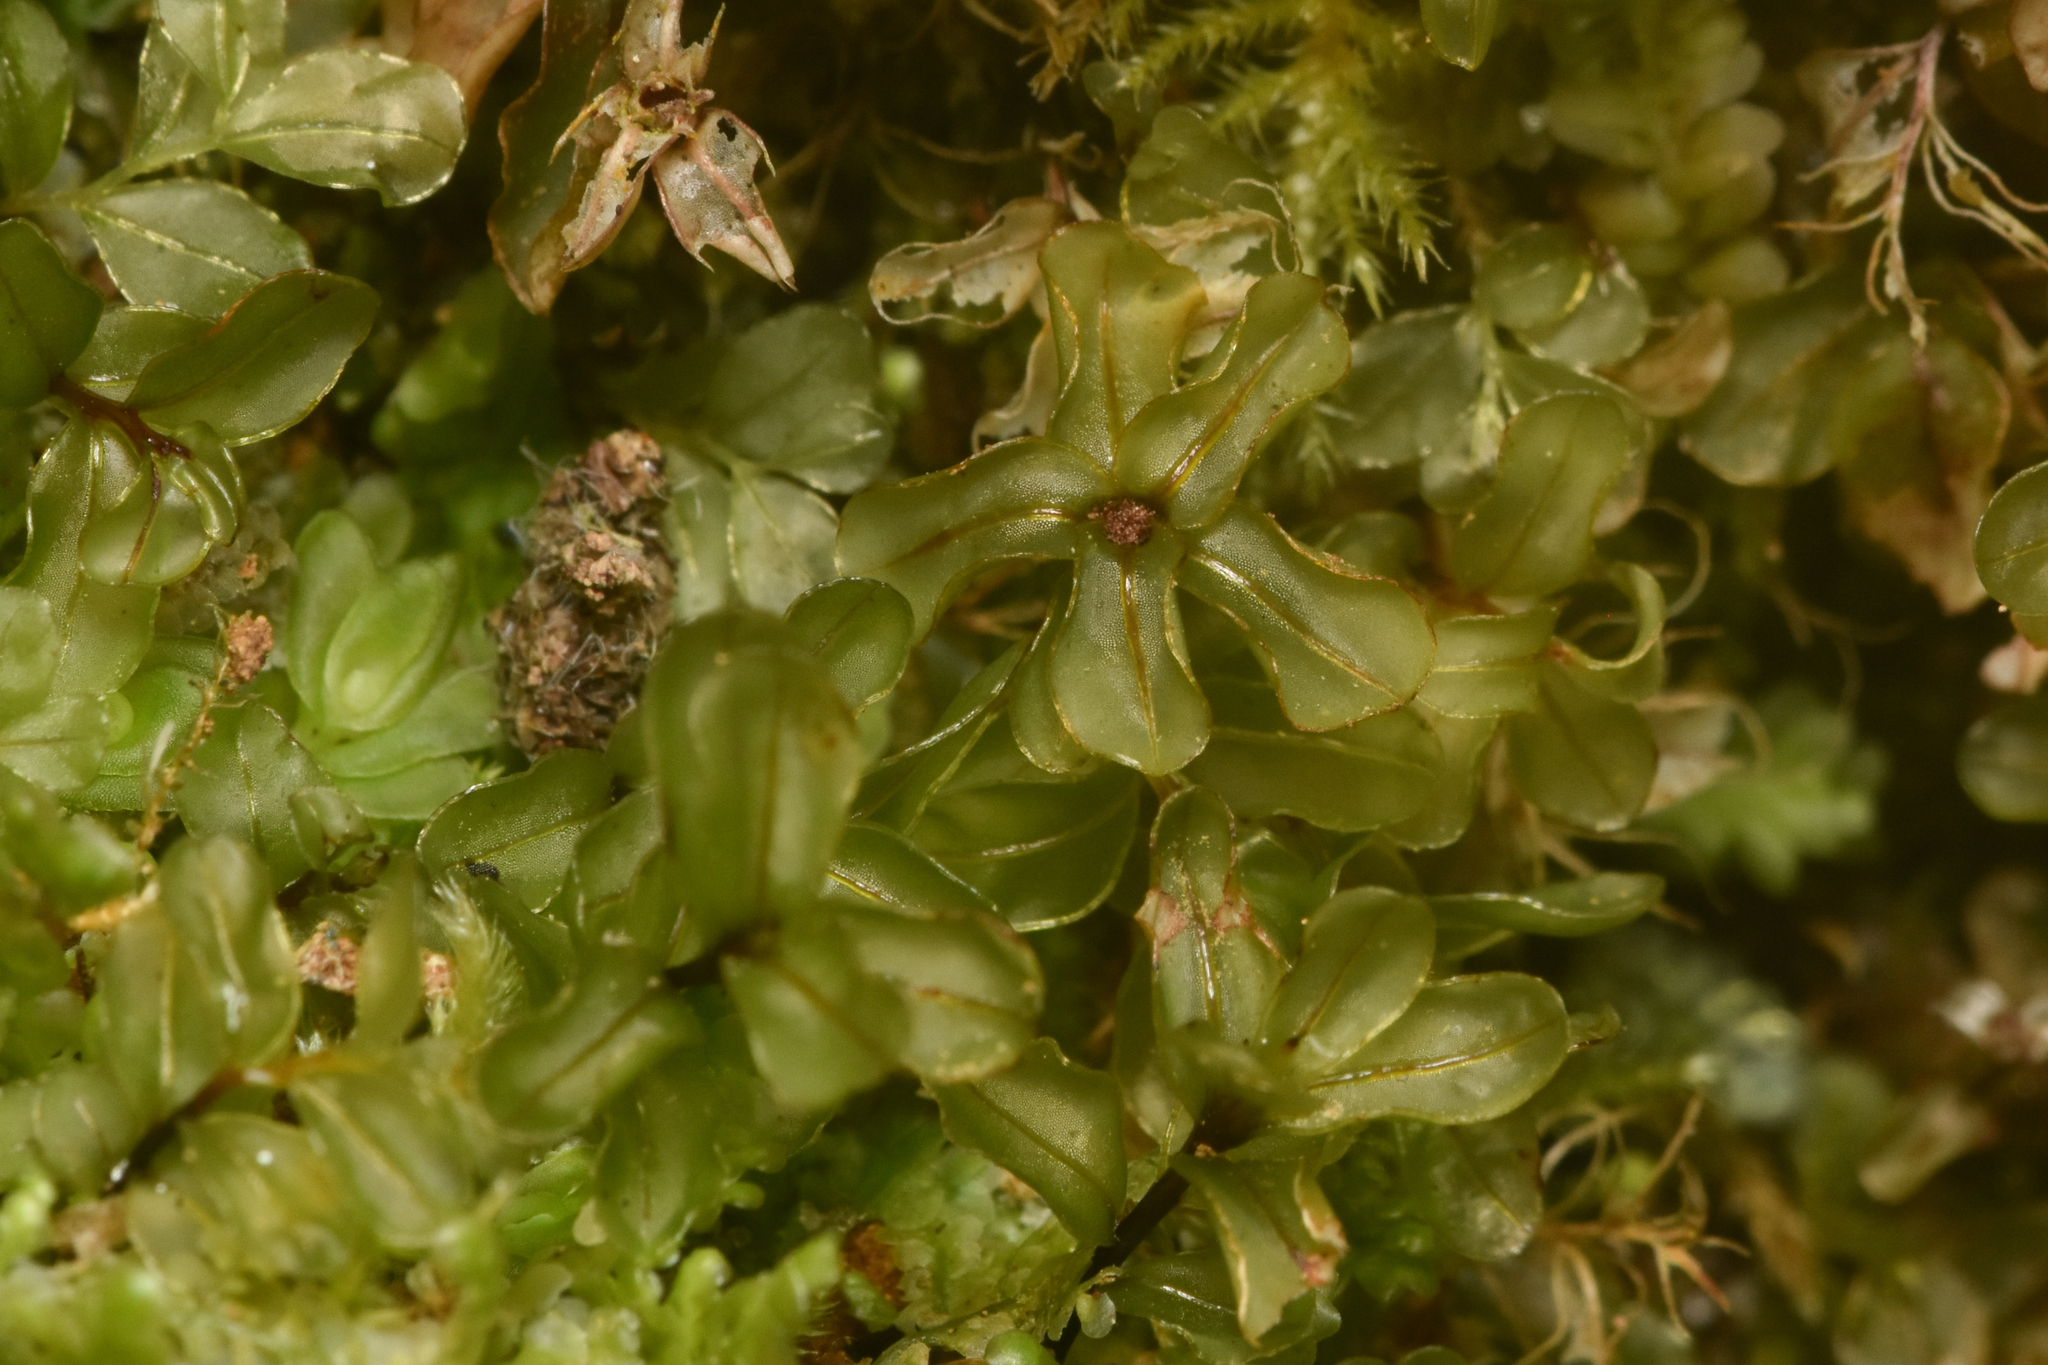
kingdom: Plantae
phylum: Bryophyta
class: Bryopsida
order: Bryales
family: Mniaceae
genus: Rhizomnium
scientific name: Rhizomnium glabrescens
